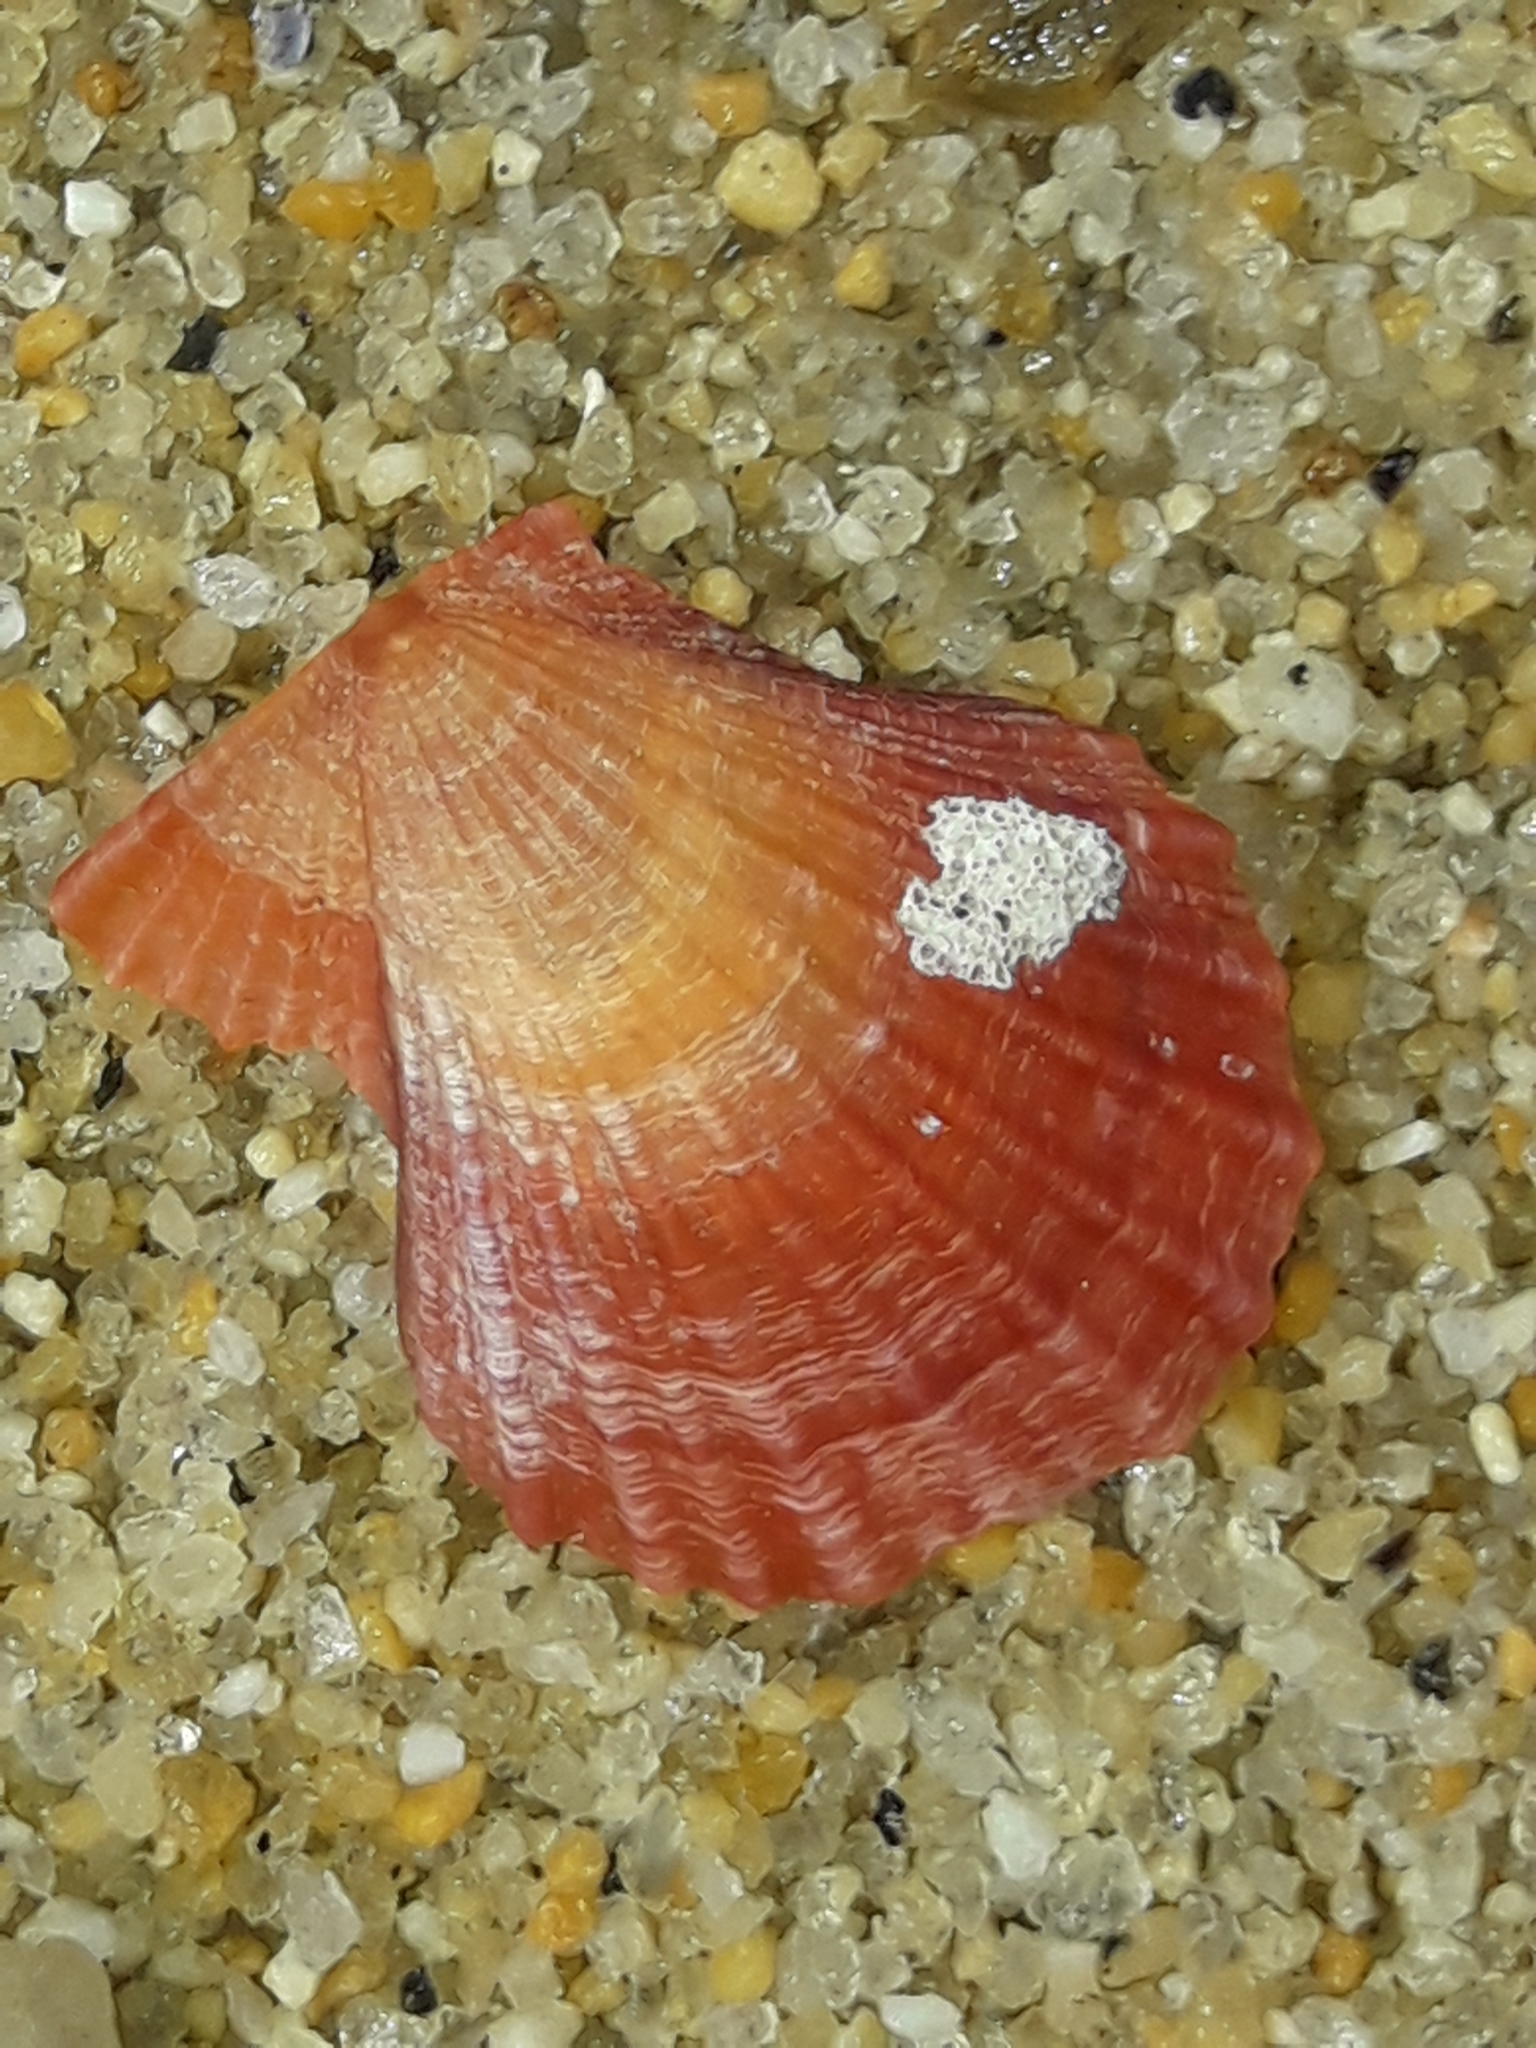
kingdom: Animalia
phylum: Mollusca
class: Bivalvia
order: Pectinida
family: Pectinidae
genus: Talochlamys
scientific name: Talochlamys zelandiae
